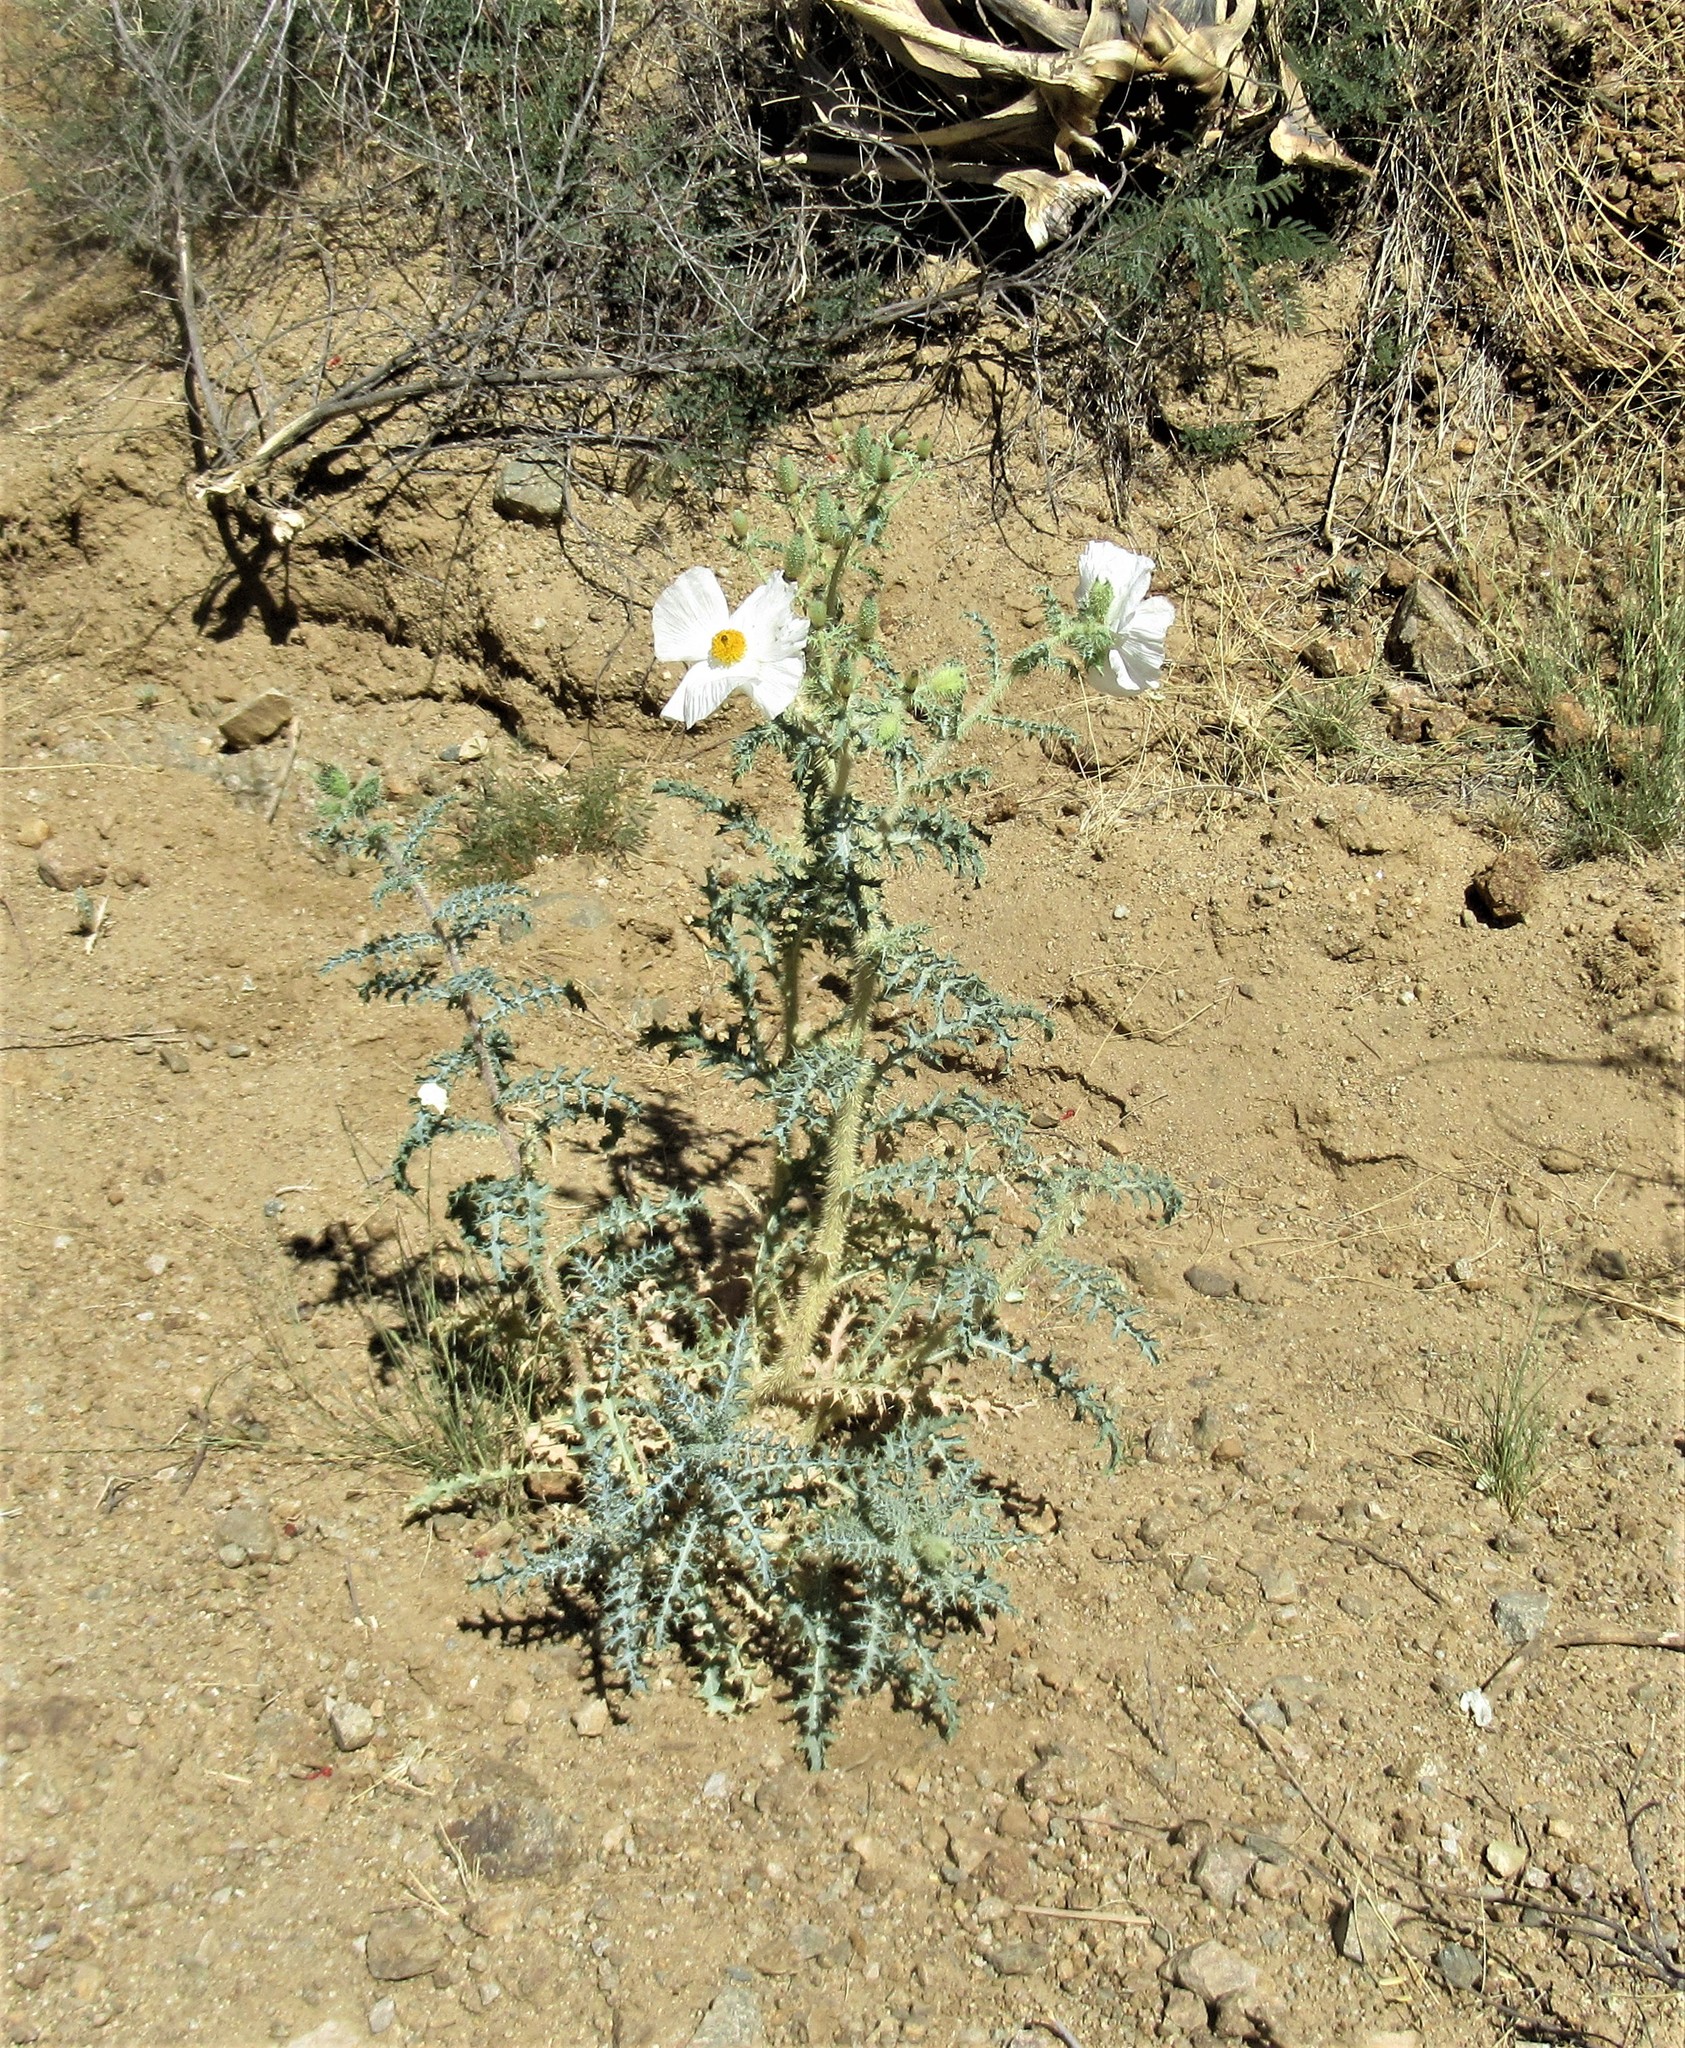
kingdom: Plantae
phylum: Tracheophyta
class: Magnoliopsida
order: Ranunculales
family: Papaveraceae
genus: Argemone
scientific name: Argemone pleiacantha
